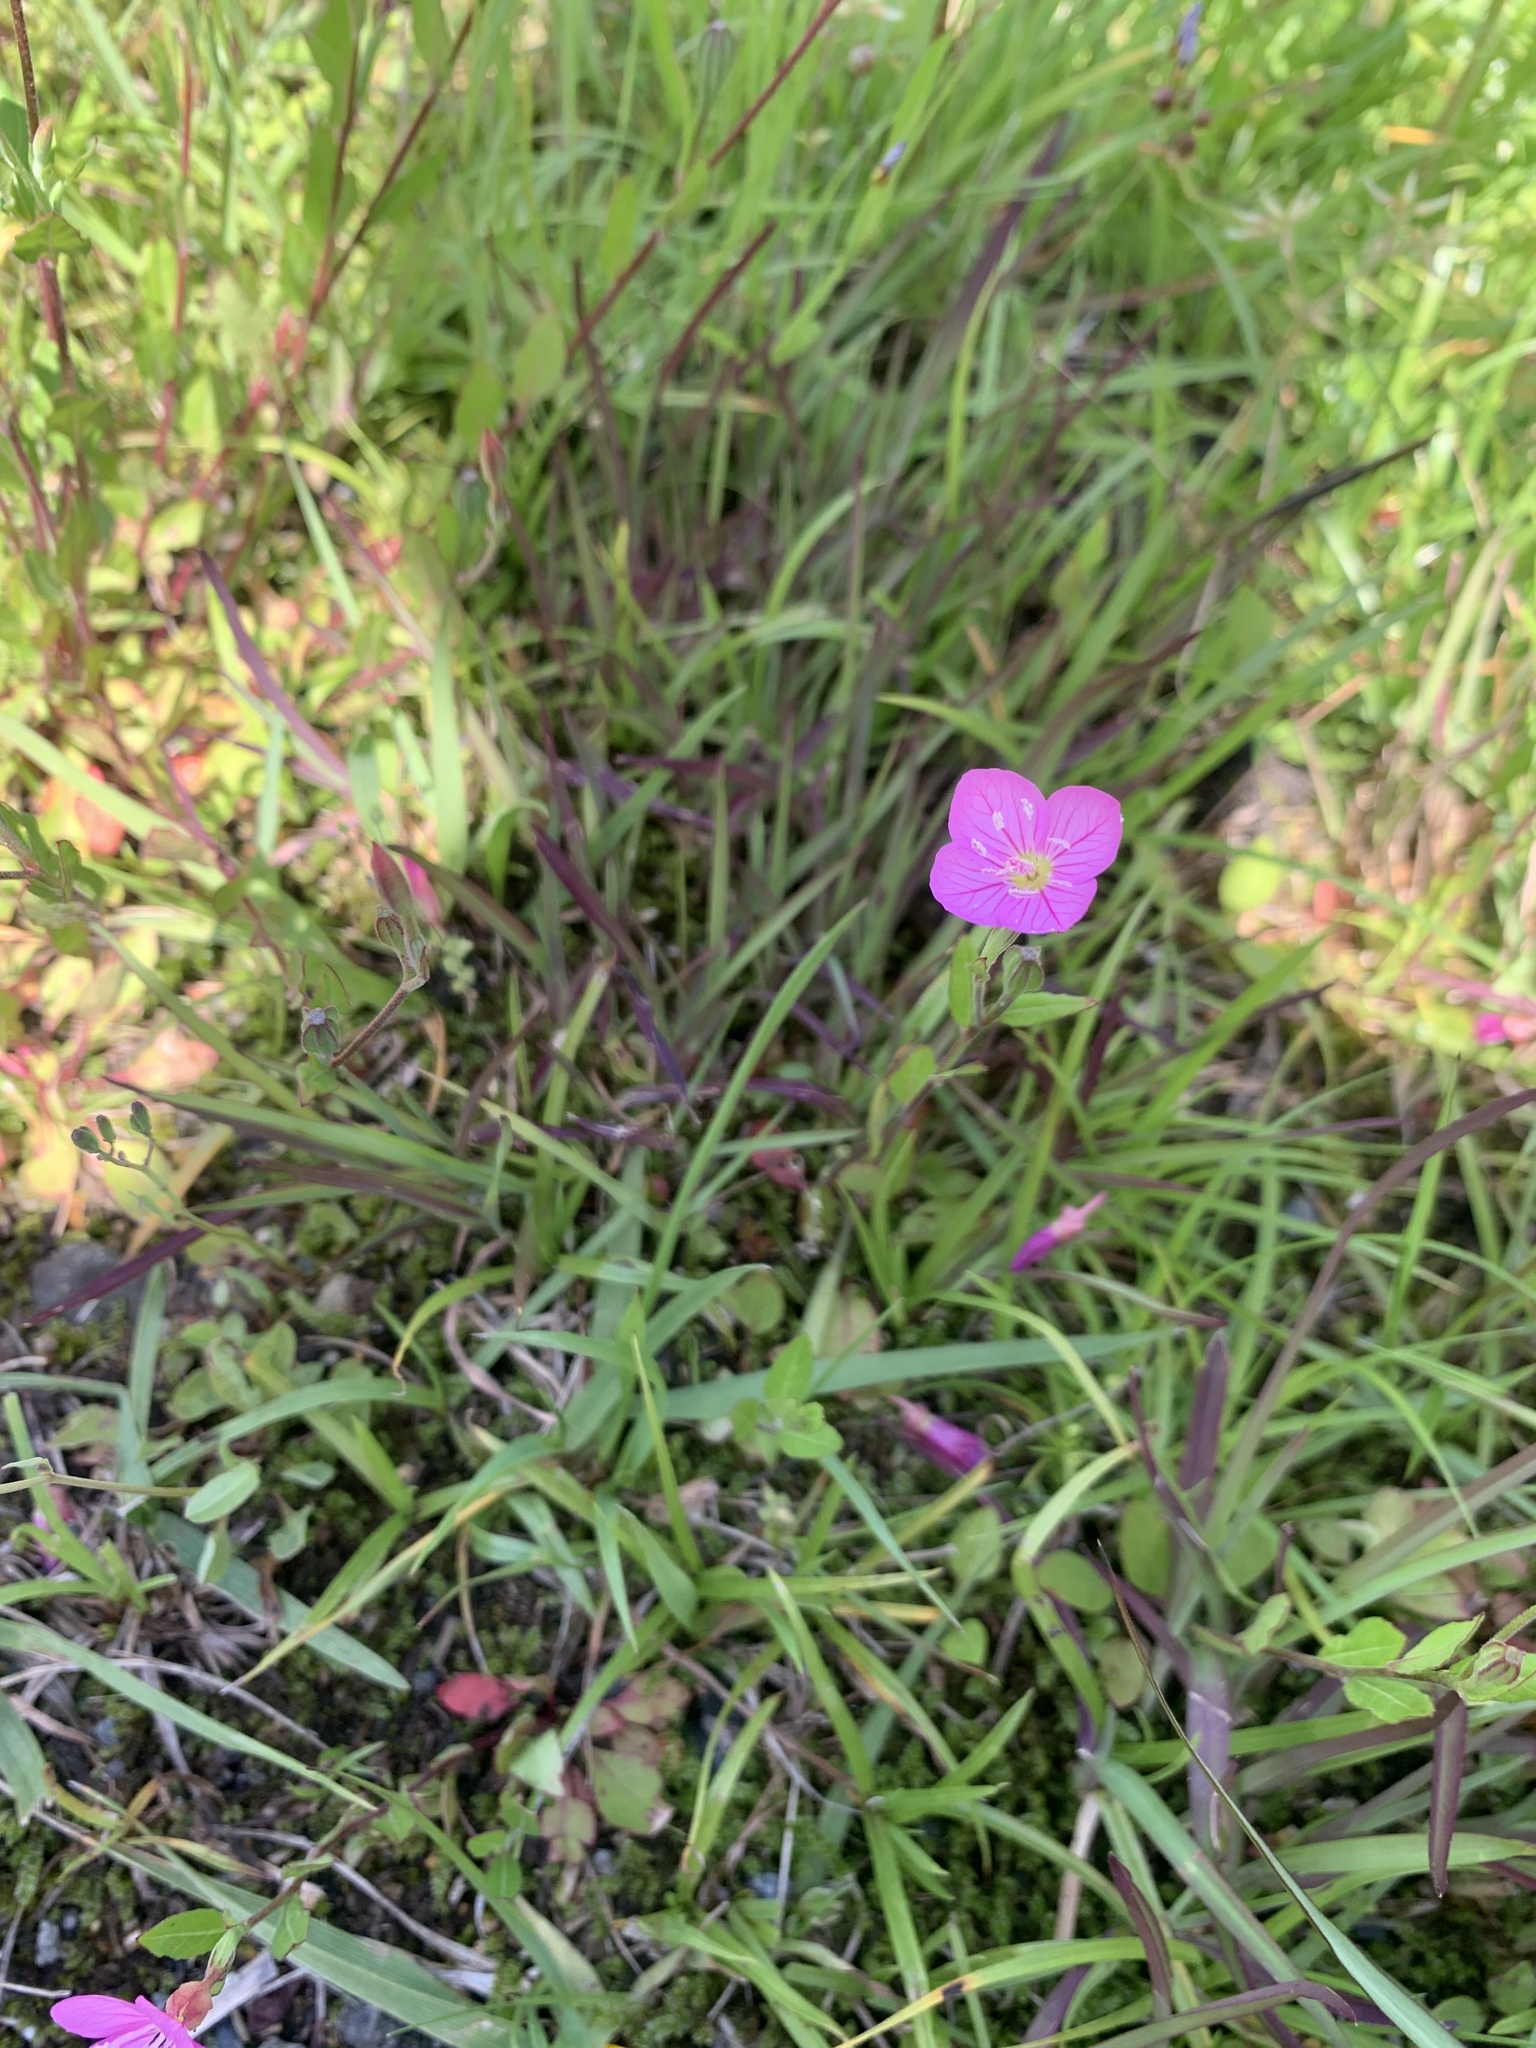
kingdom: Plantae
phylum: Tracheophyta
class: Magnoliopsida
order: Myrtales
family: Onagraceae
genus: Oenothera
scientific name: Oenothera rosea
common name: Rosy evening-primrose
